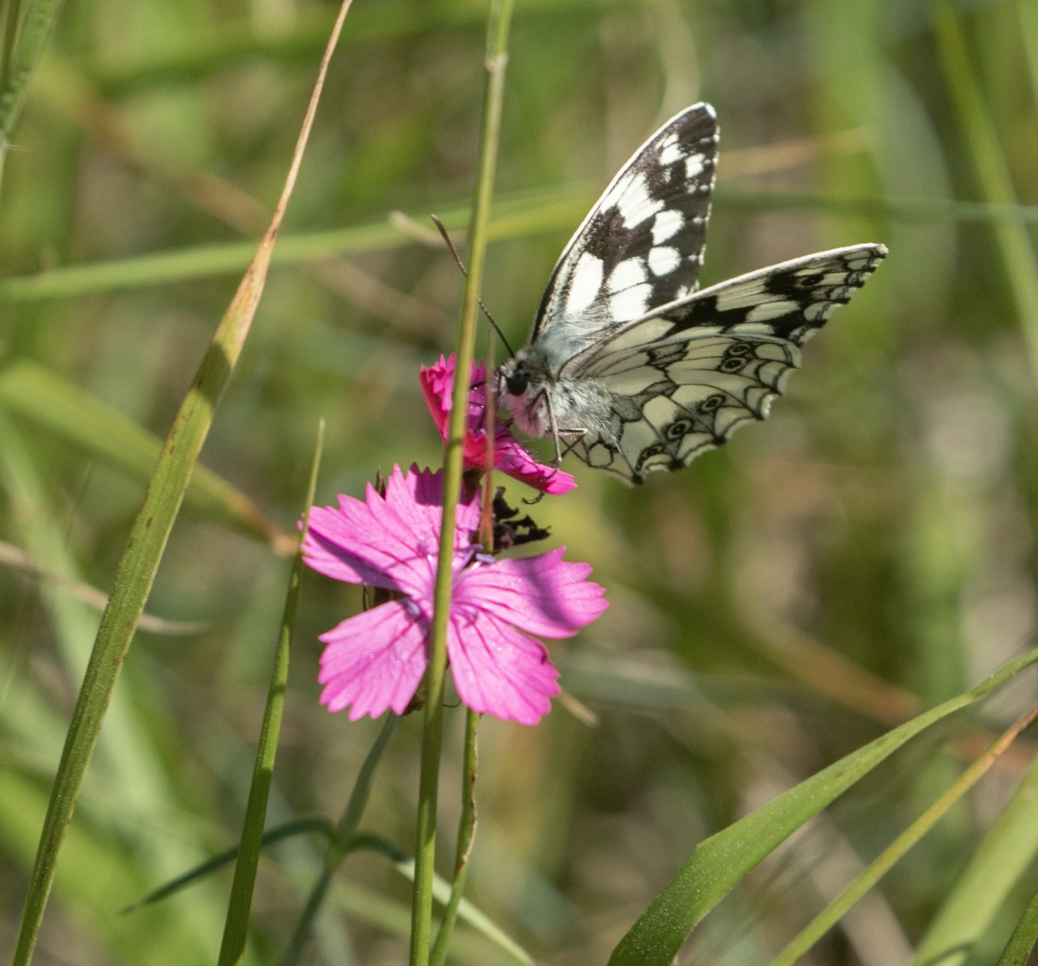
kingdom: Animalia
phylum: Arthropoda
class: Insecta
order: Lepidoptera
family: Nymphalidae
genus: Melanargia
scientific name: Melanargia galathea
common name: Marbled white
